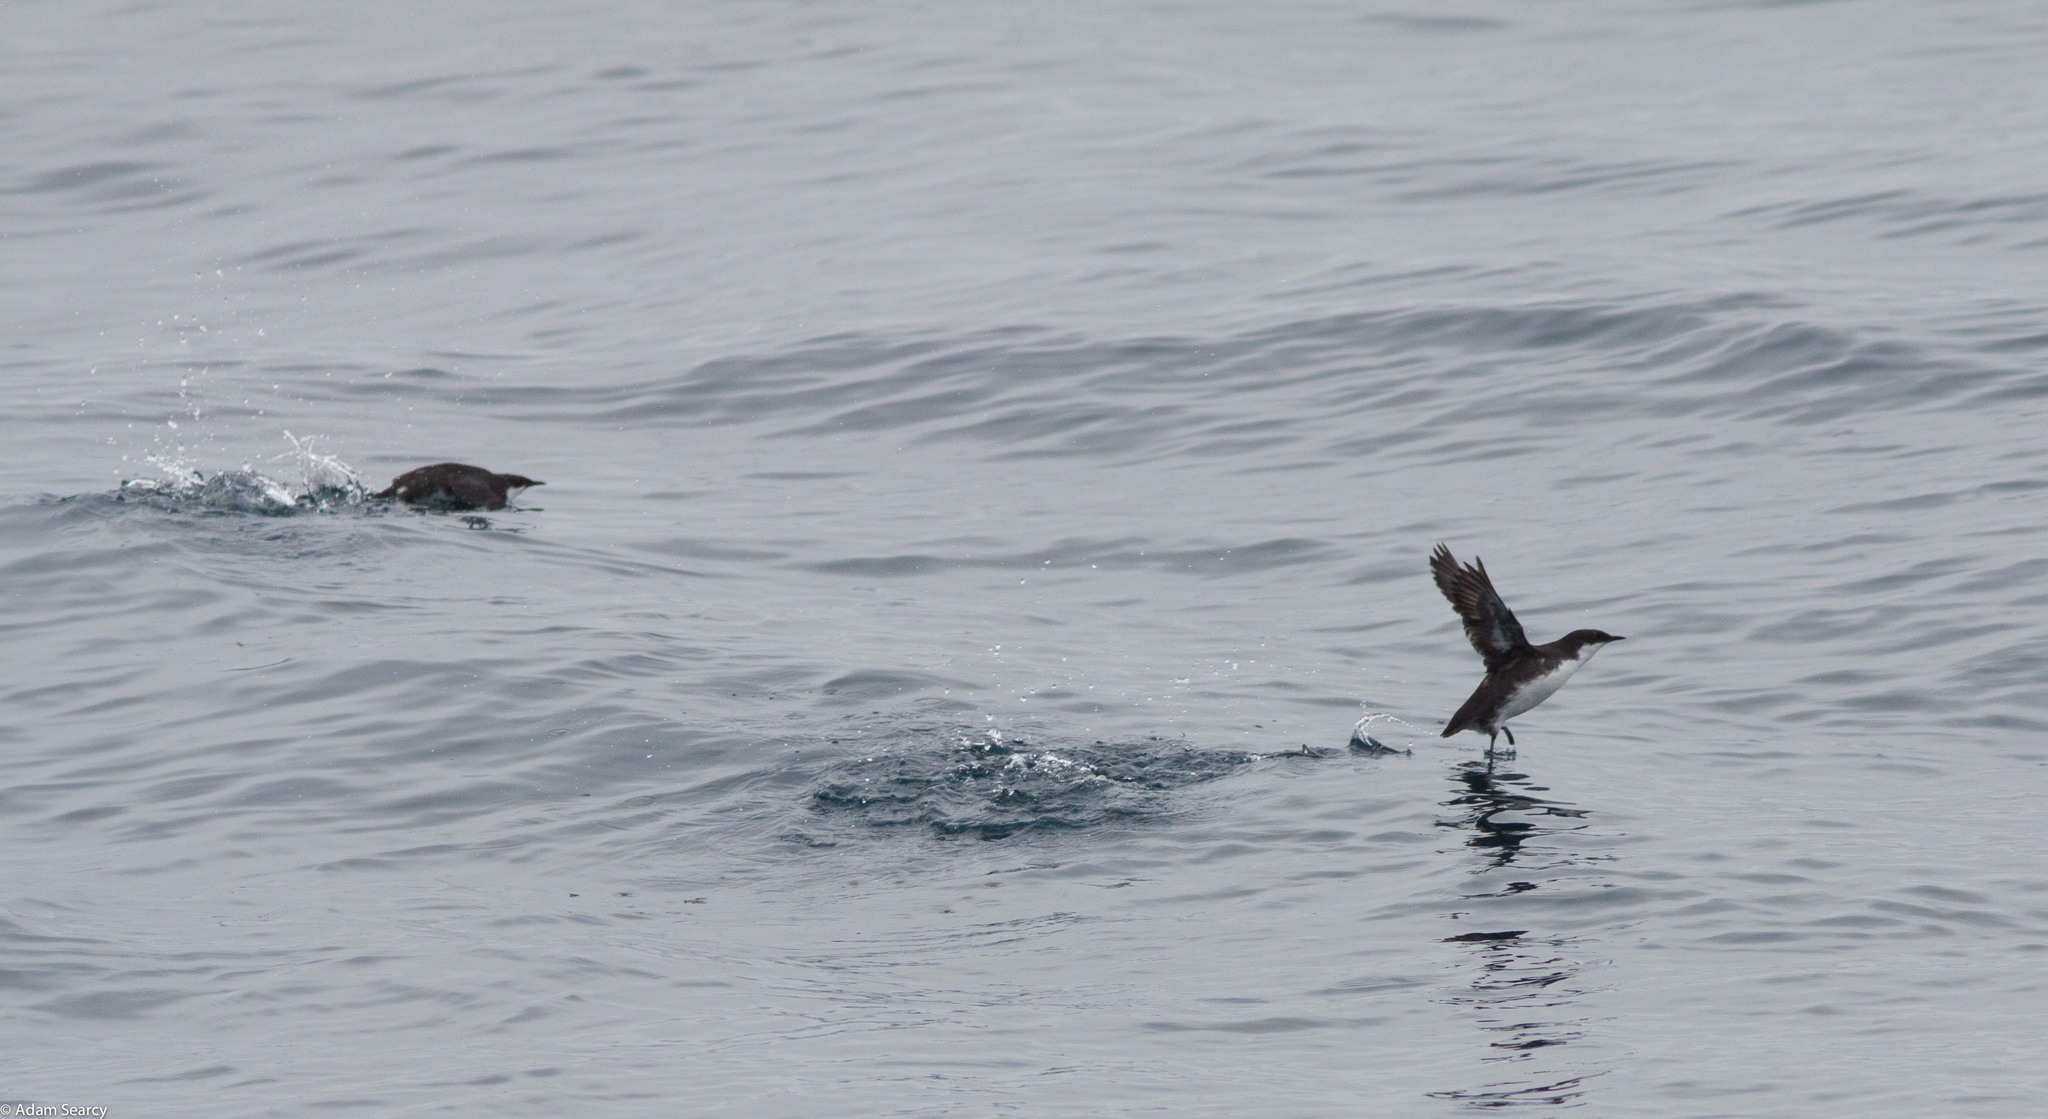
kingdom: Animalia
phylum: Chordata
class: Aves
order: Charadriiformes
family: Alcidae
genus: Synthliboramphus
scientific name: Synthliboramphus craveri
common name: Craveri's murrelet
